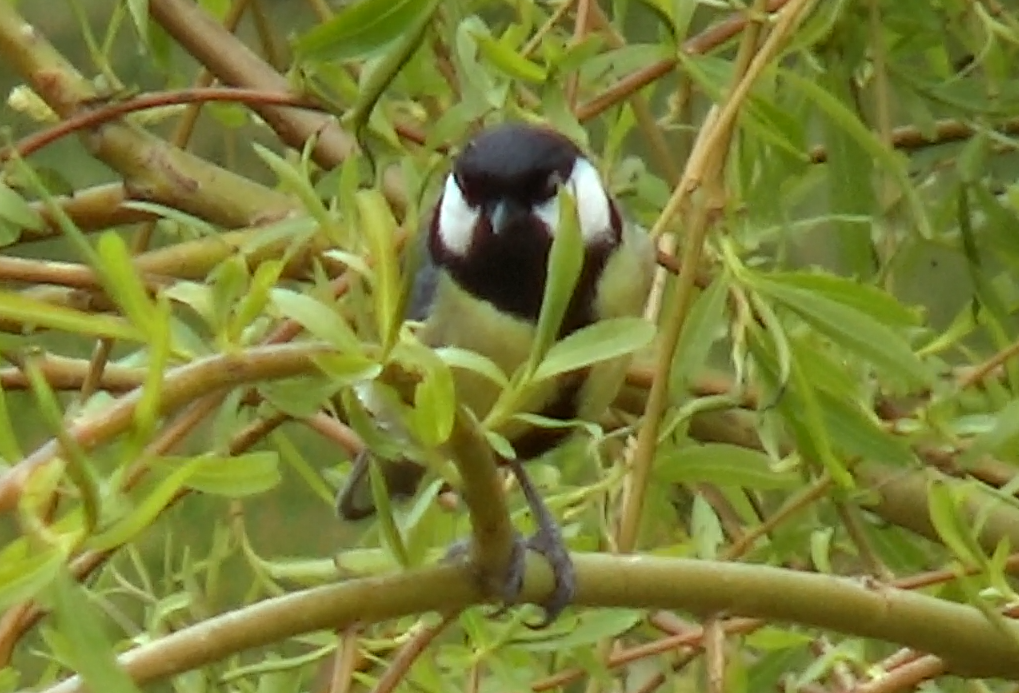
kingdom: Animalia
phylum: Chordata
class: Aves
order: Passeriformes
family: Paridae
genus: Parus
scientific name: Parus major
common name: Great tit
